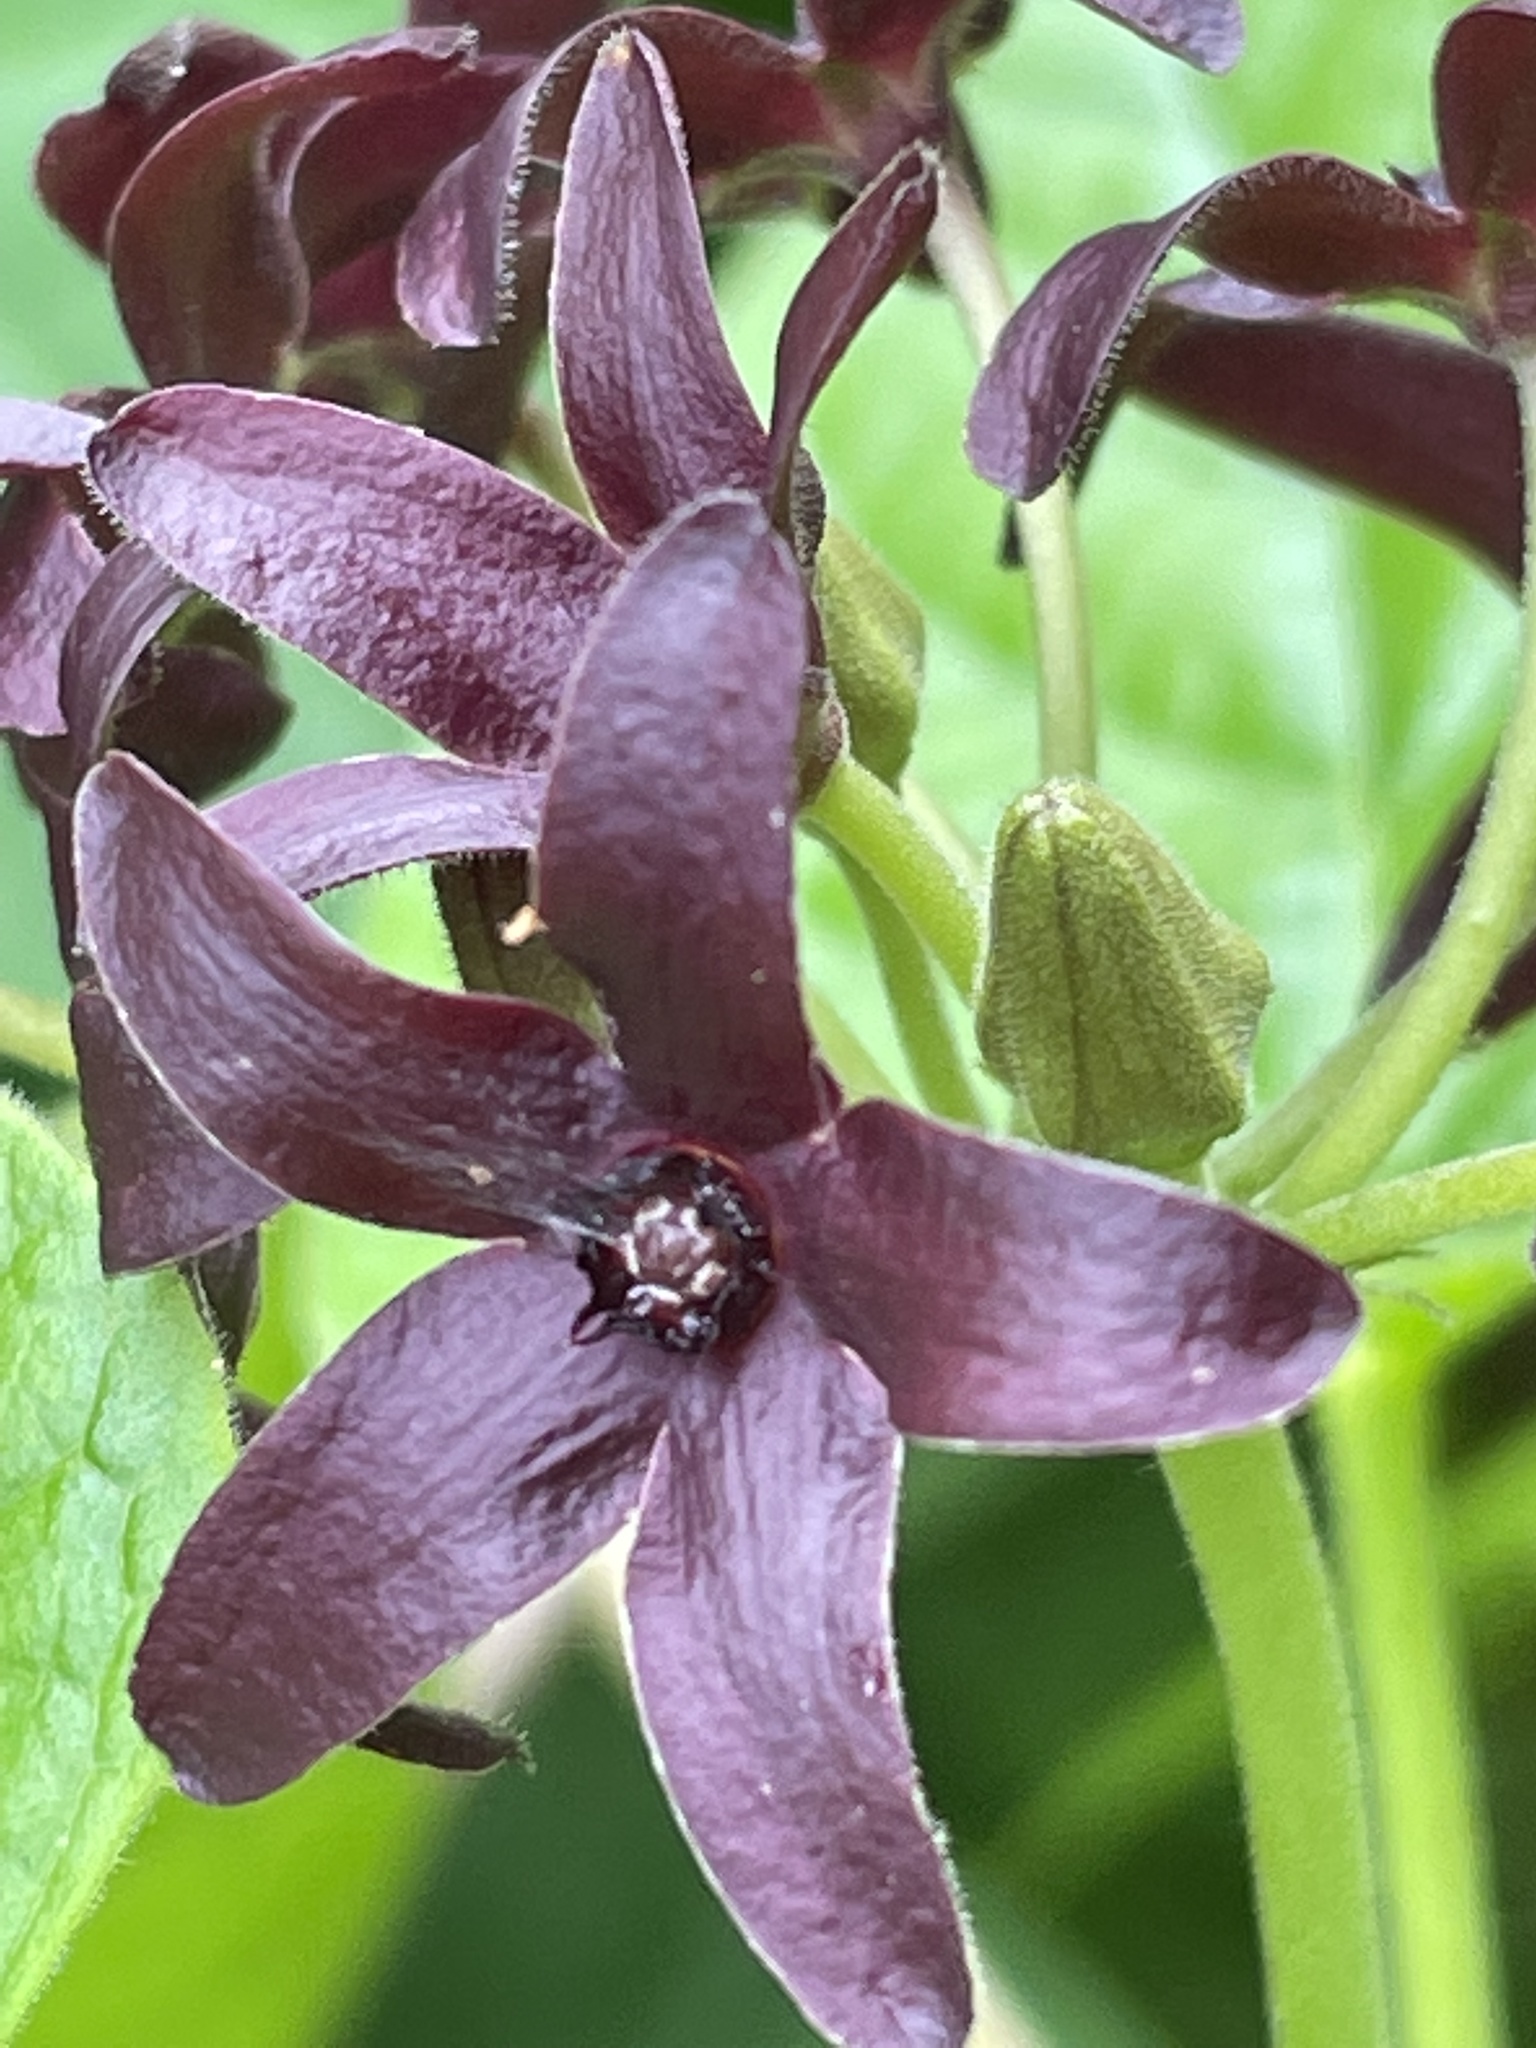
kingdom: Plantae
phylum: Tracheophyta
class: Magnoliopsida
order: Gentianales
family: Apocynaceae
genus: Matelea
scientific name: Matelea carolinensis
